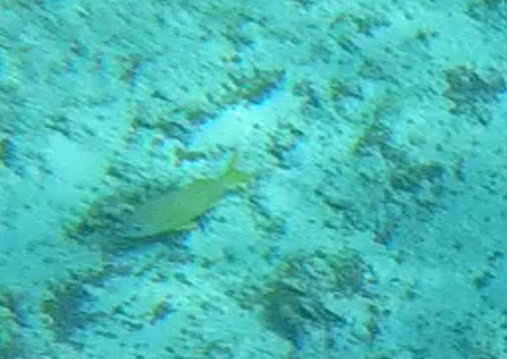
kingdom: Animalia
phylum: Chordata
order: Perciformes
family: Haemulidae
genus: Haemulon
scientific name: Haemulon flavolineatum
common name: French grunt
